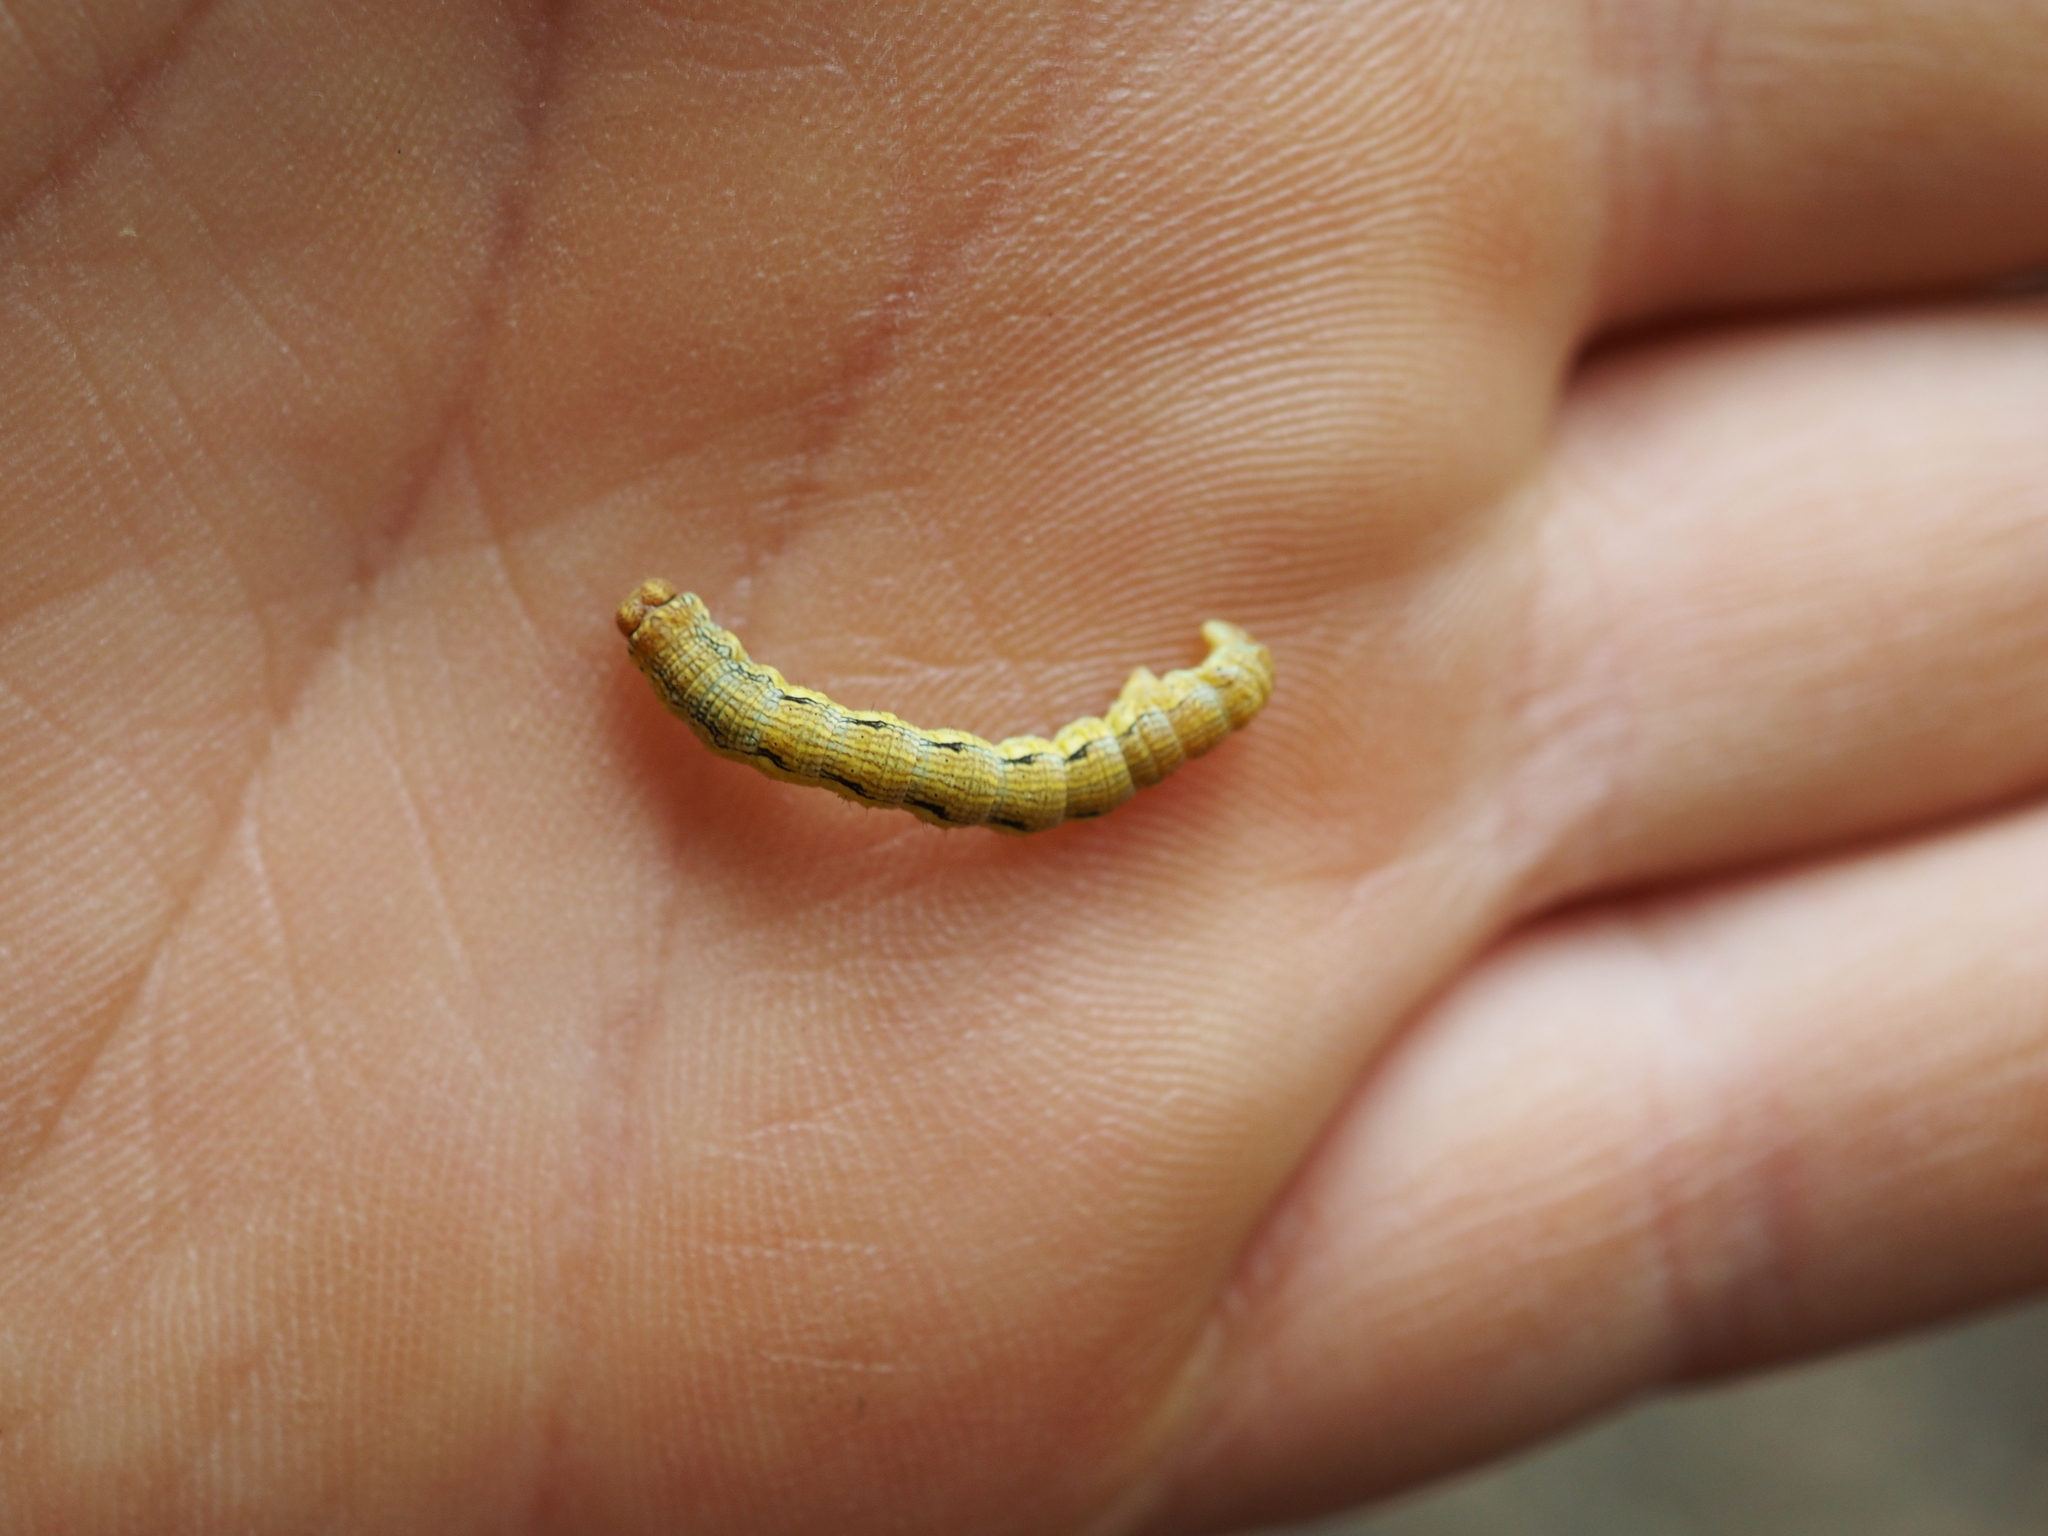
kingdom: Animalia
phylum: Arthropoda
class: Insecta
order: Lepidoptera
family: Geometridae
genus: Erannis
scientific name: Erannis defoliaria
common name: Mottled umber
